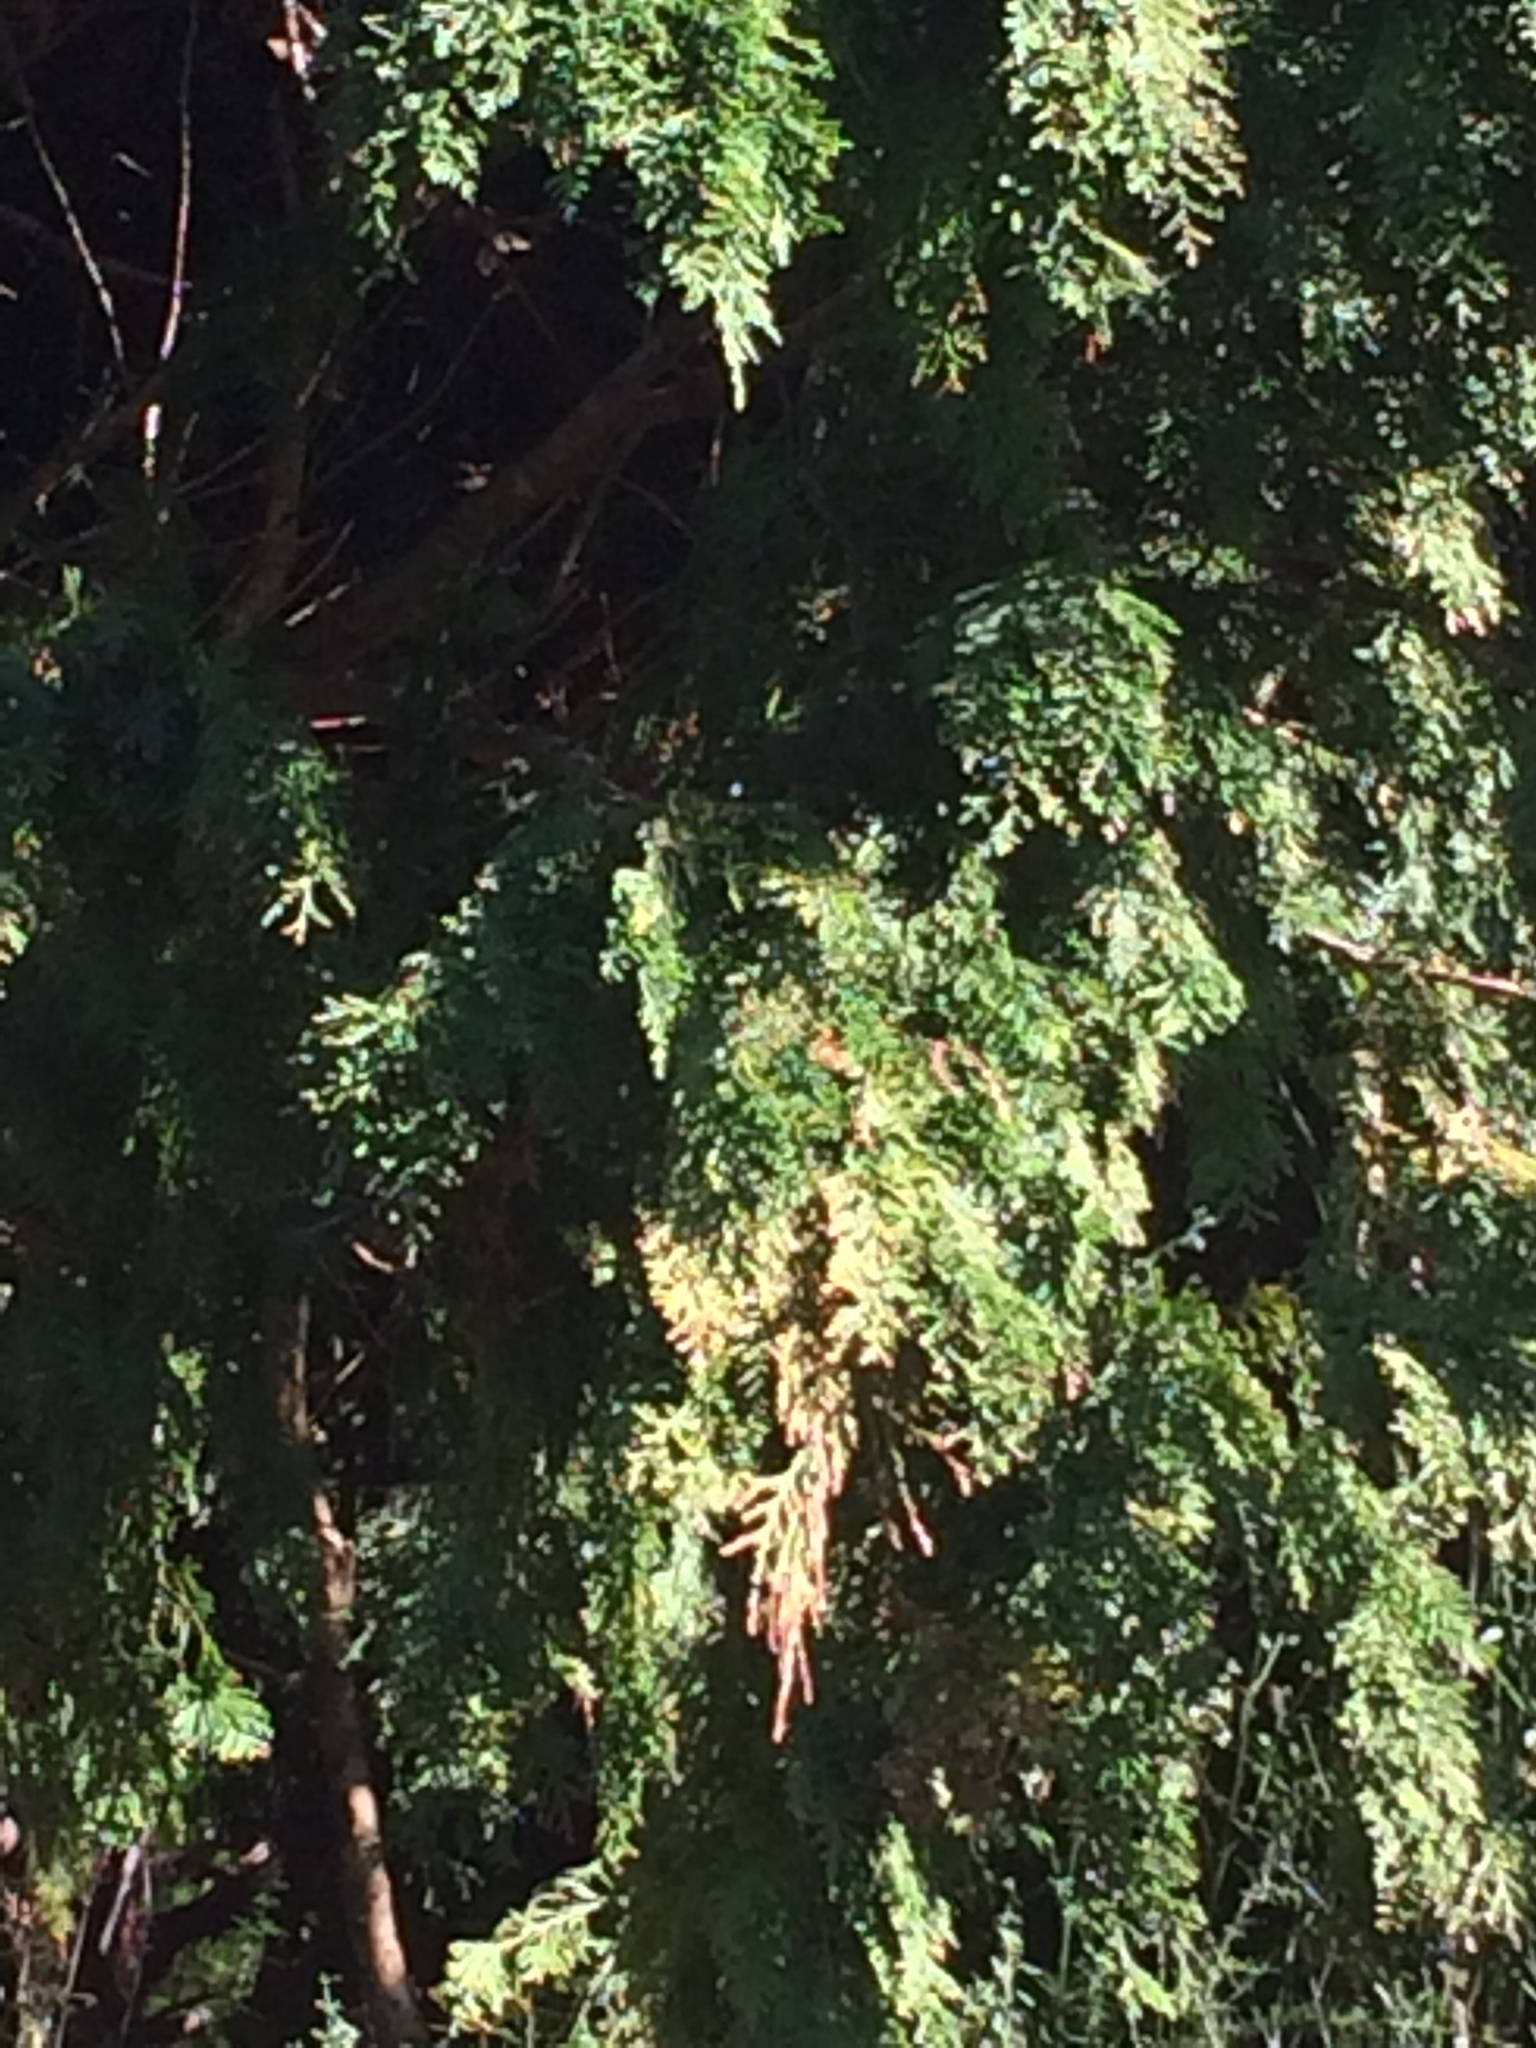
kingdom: Plantae
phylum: Tracheophyta
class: Pinopsida
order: Pinales
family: Cupressaceae
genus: Chamaecyparis
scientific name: Chamaecyparis lawsoniana
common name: Lawson's cypress
